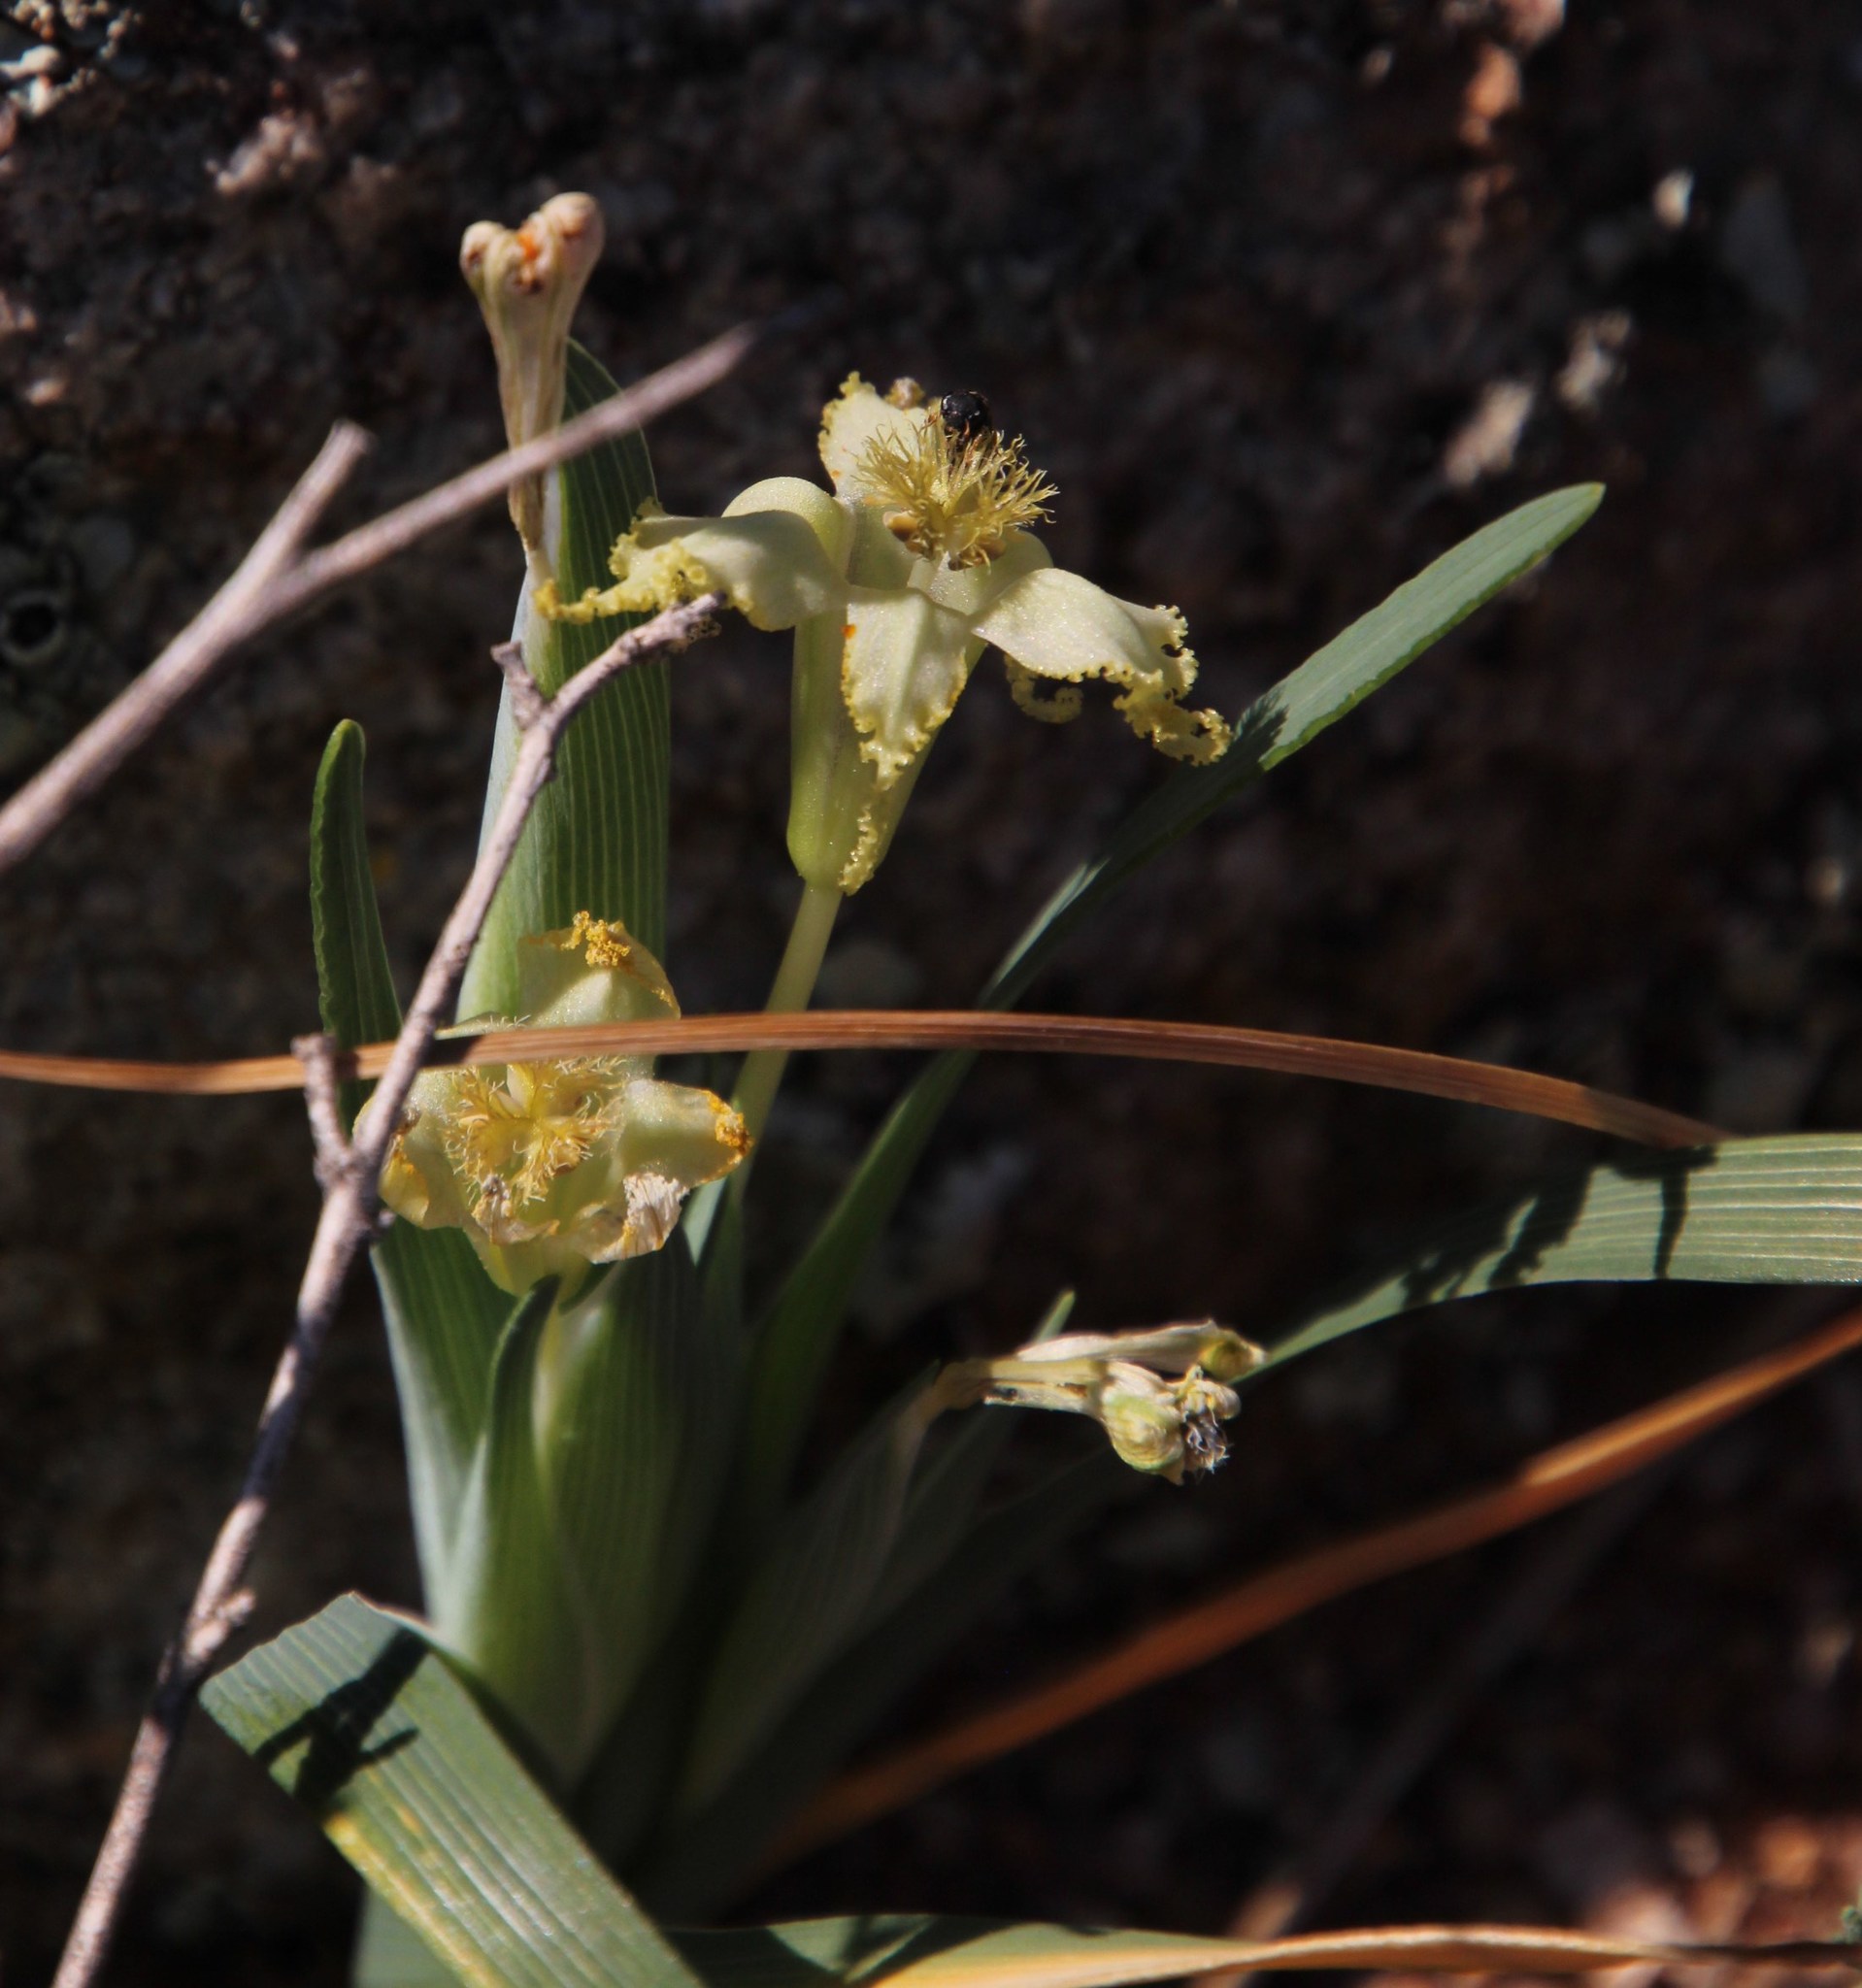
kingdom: Plantae
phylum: Tracheophyta
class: Liliopsida
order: Asparagales
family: Iridaceae
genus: Ferraria
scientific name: Ferraria variabilis
